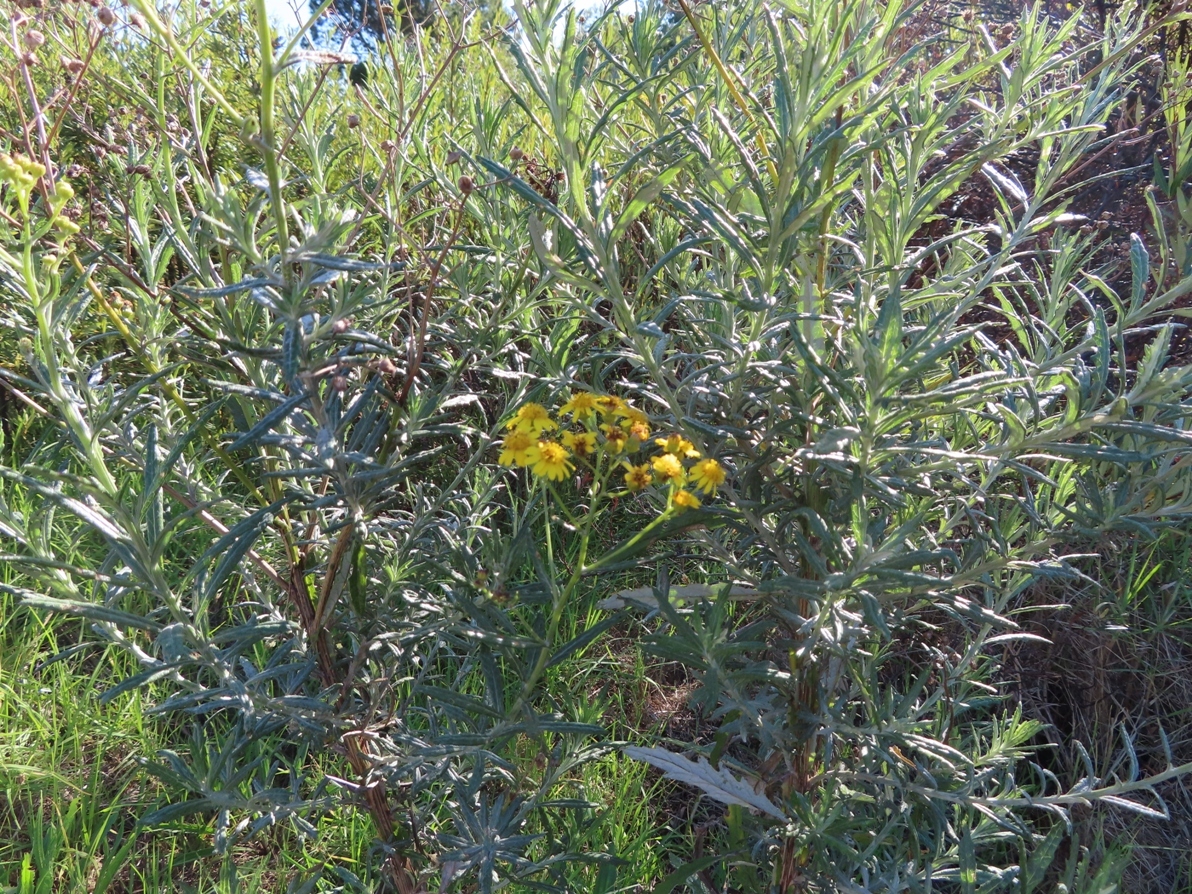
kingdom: Plantae
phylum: Tracheophyta
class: Magnoliopsida
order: Asterales
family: Asteraceae
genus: Senecio
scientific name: Senecio pterophorus
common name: Shoddy ragwort
